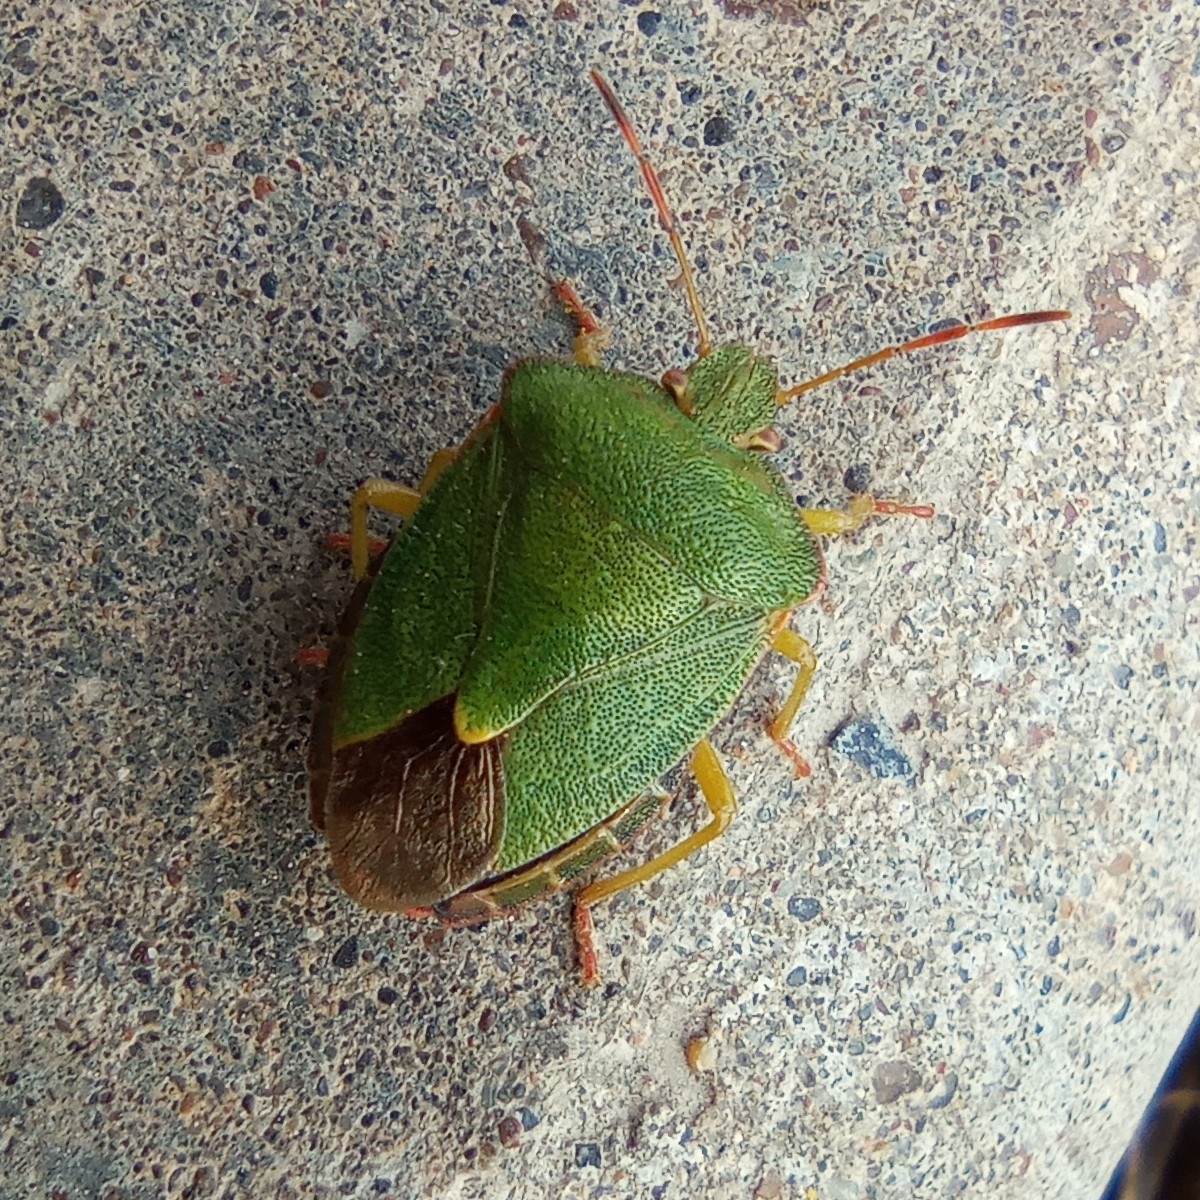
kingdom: Animalia
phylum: Arthropoda
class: Insecta
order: Hemiptera
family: Pentatomidae
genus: Palomena
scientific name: Palomena prasina
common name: Green shieldbug
